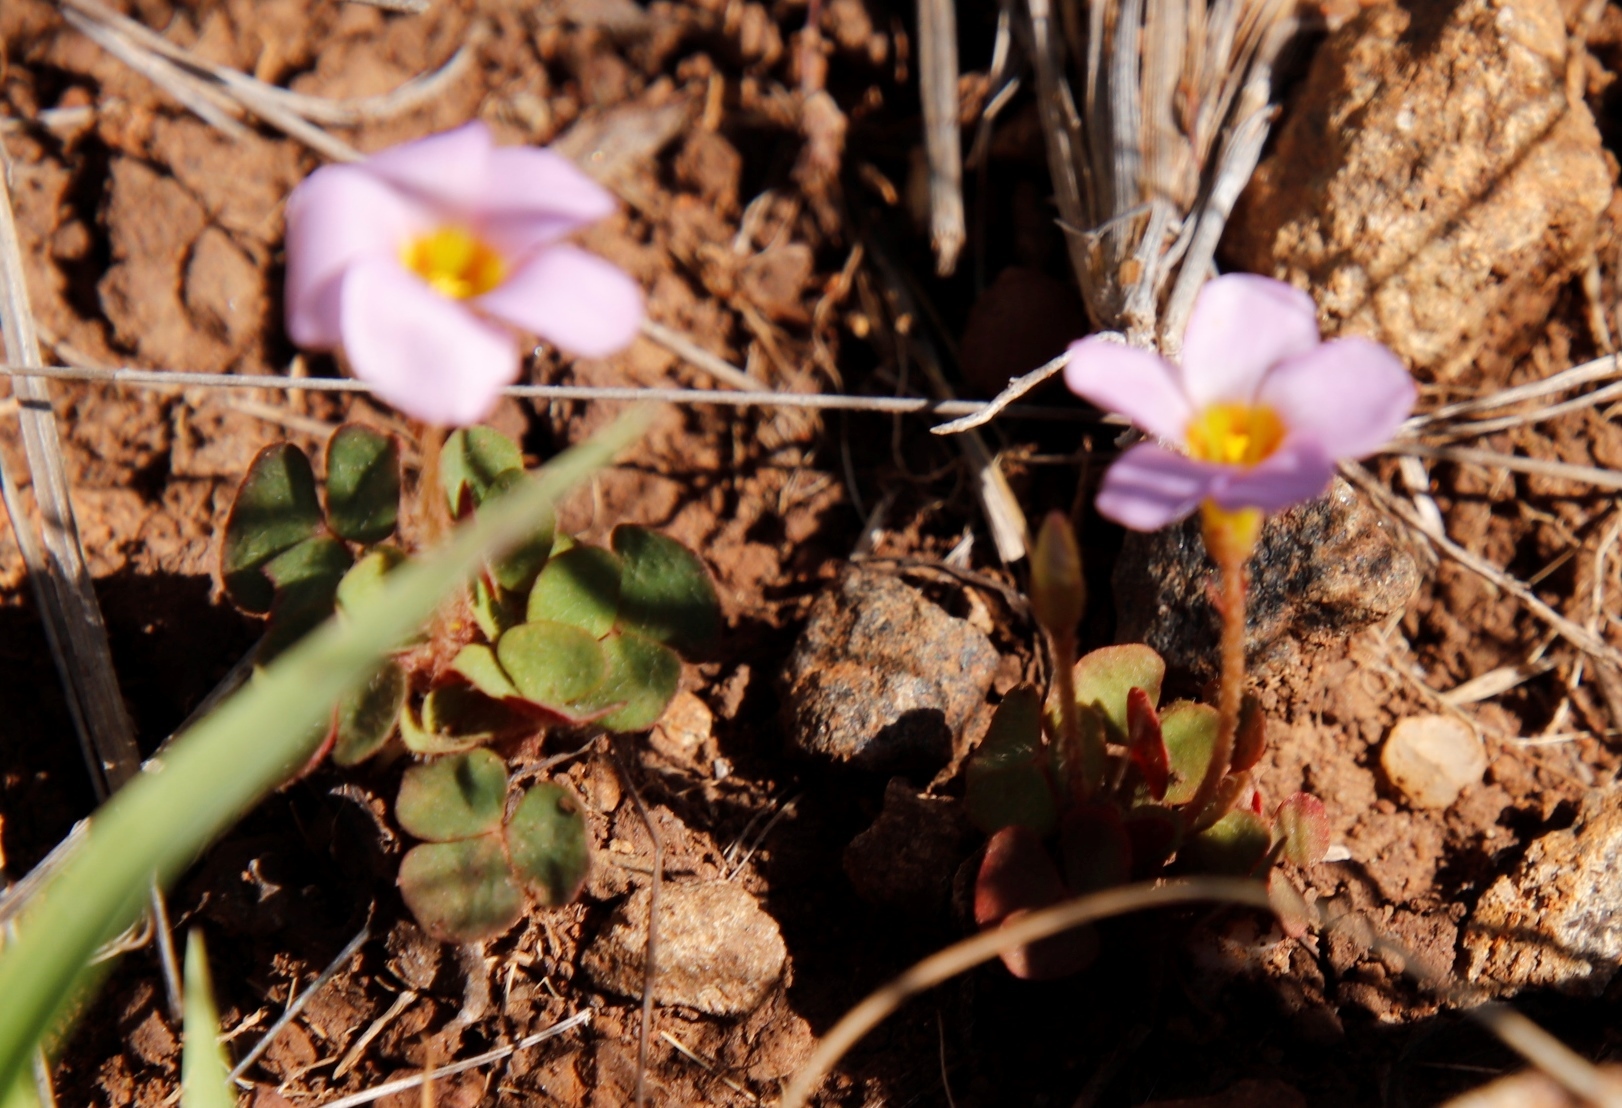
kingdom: Plantae
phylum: Tracheophyta
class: Magnoliopsida
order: Oxalidales
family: Oxalidaceae
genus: Oxalis
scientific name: Oxalis obliquifolia
